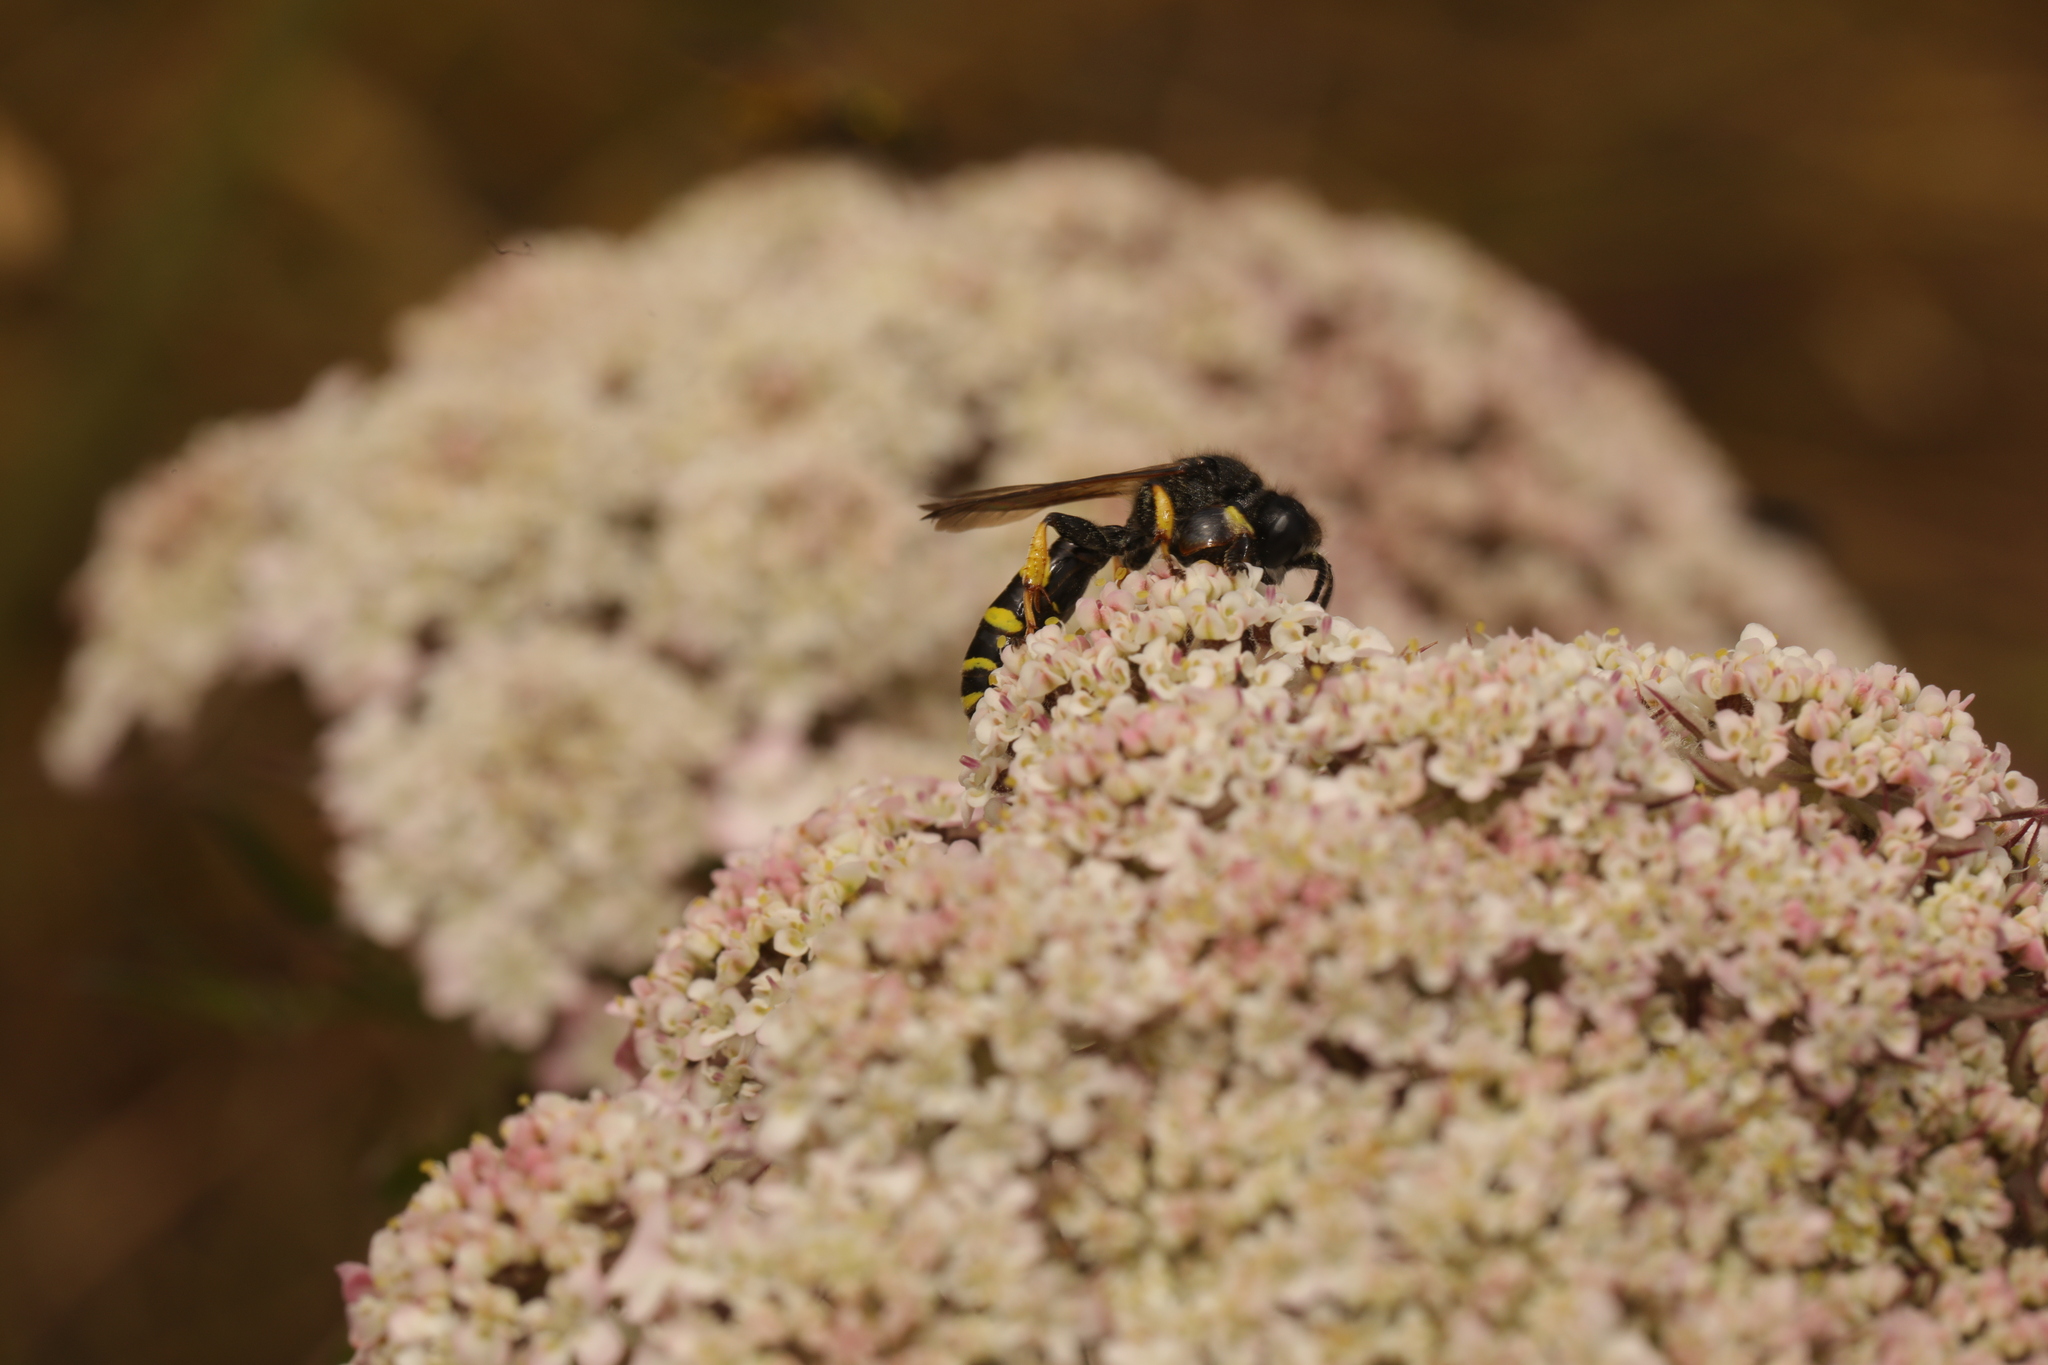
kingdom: Animalia
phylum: Arthropoda
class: Insecta
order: Hymenoptera
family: Crabronidae
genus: Crabro
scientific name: Crabro cribrarius
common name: Slender bodied digger wasp
